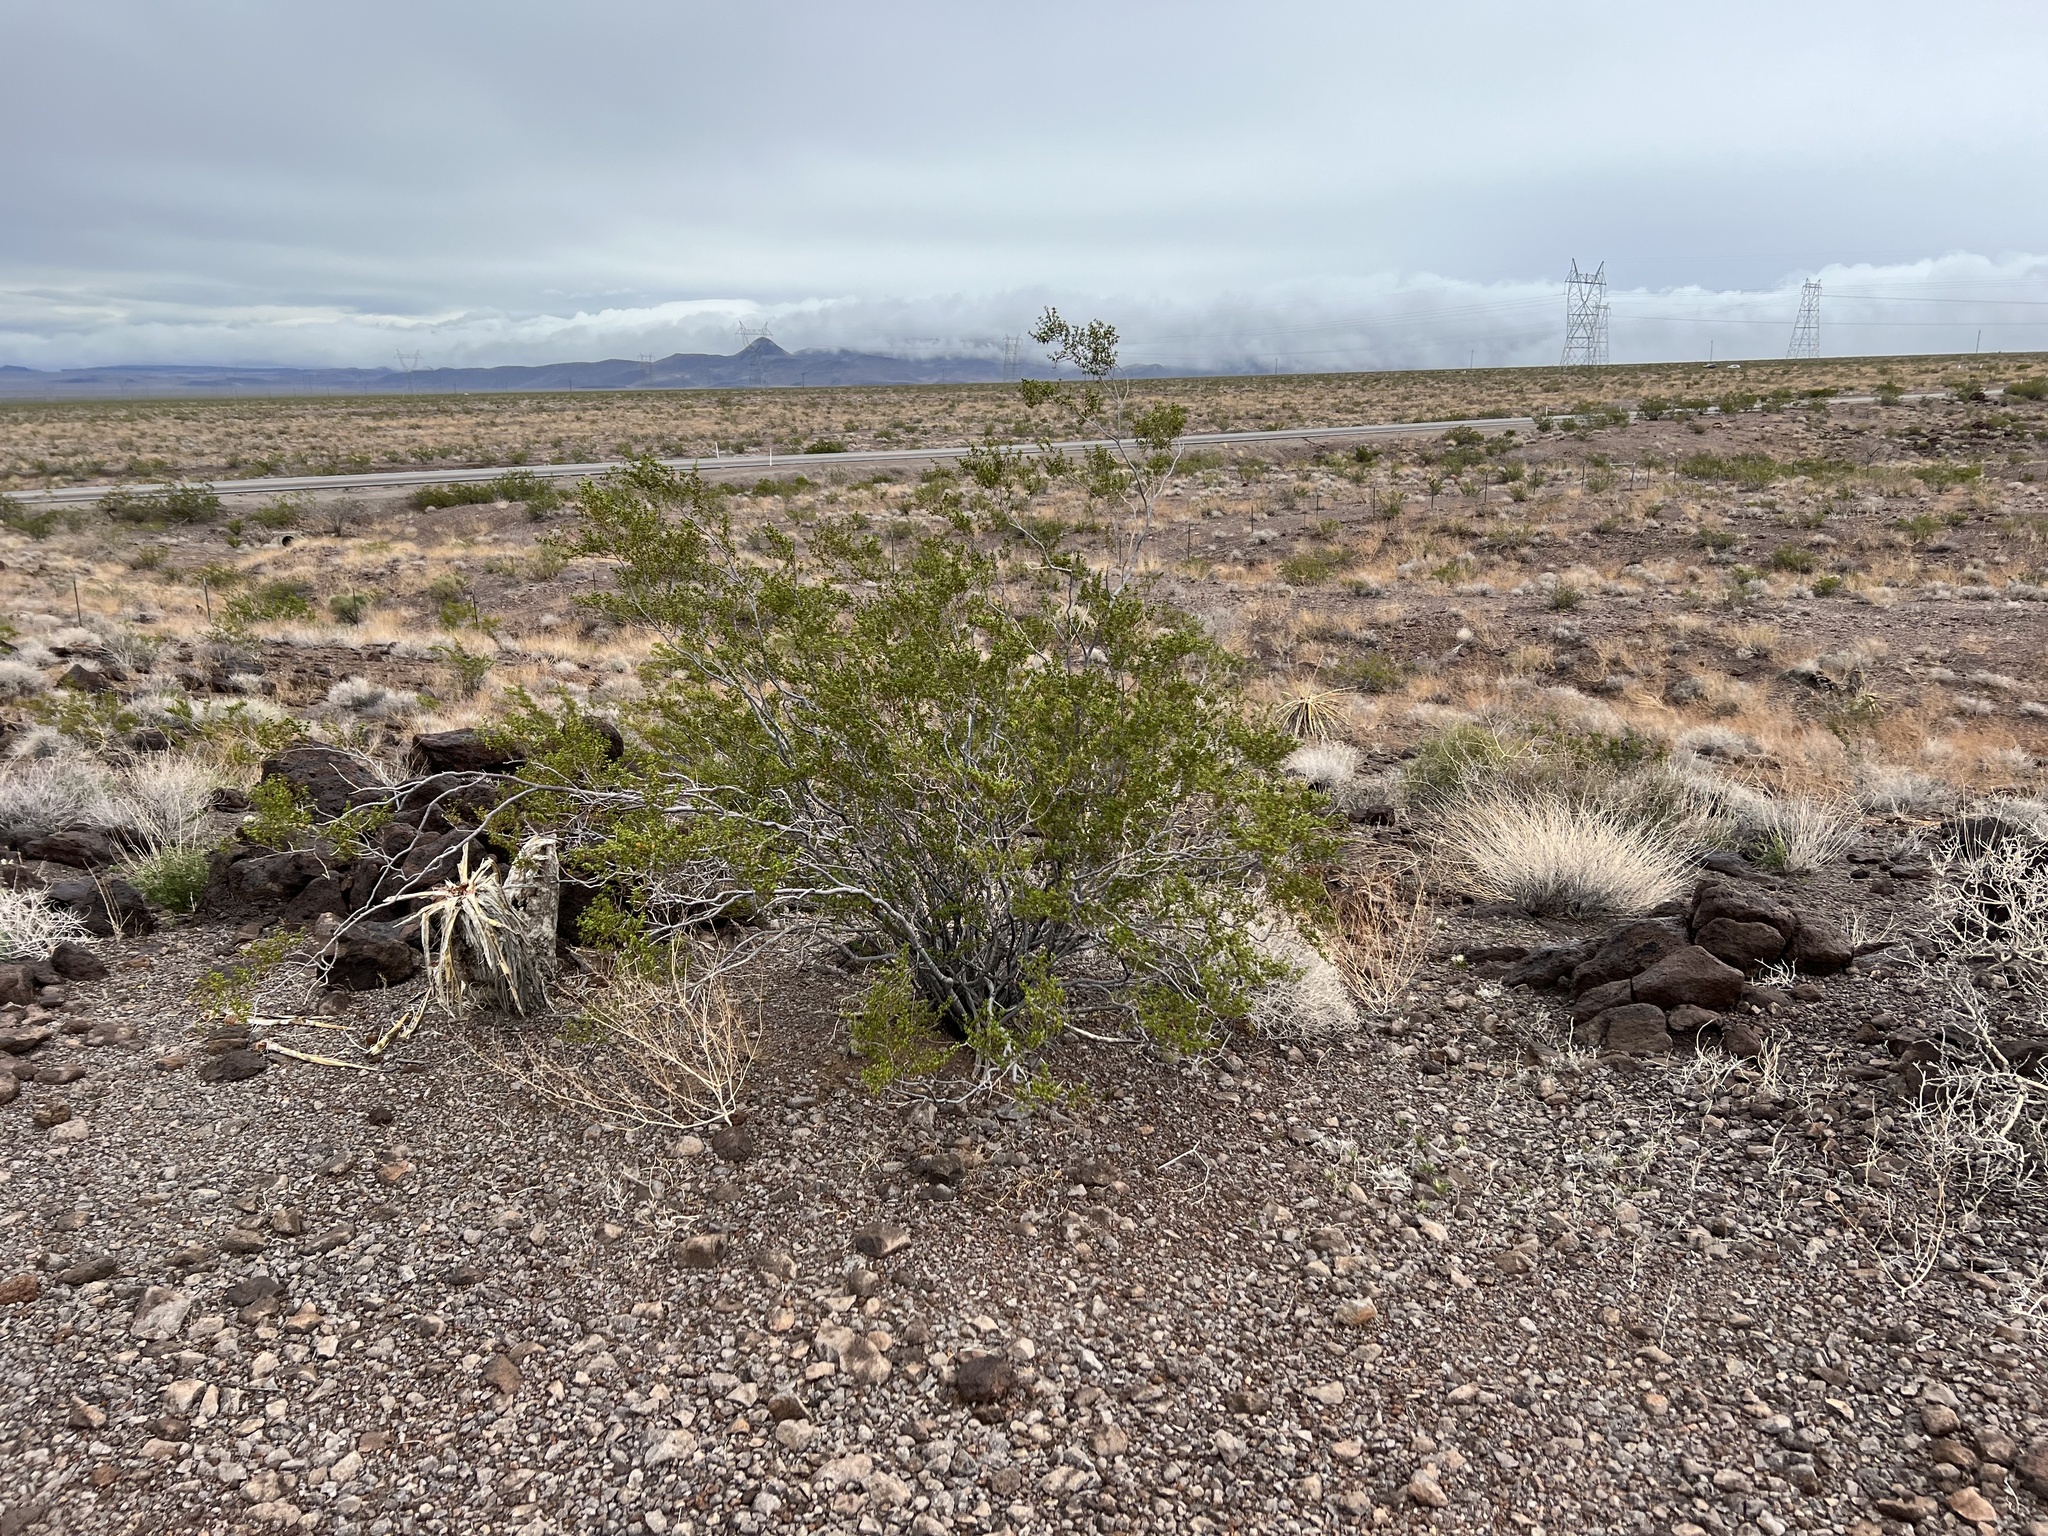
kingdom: Plantae
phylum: Tracheophyta
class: Magnoliopsida
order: Zygophyllales
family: Zygophyllaceae
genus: Larrea
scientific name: Larrea tridentata
